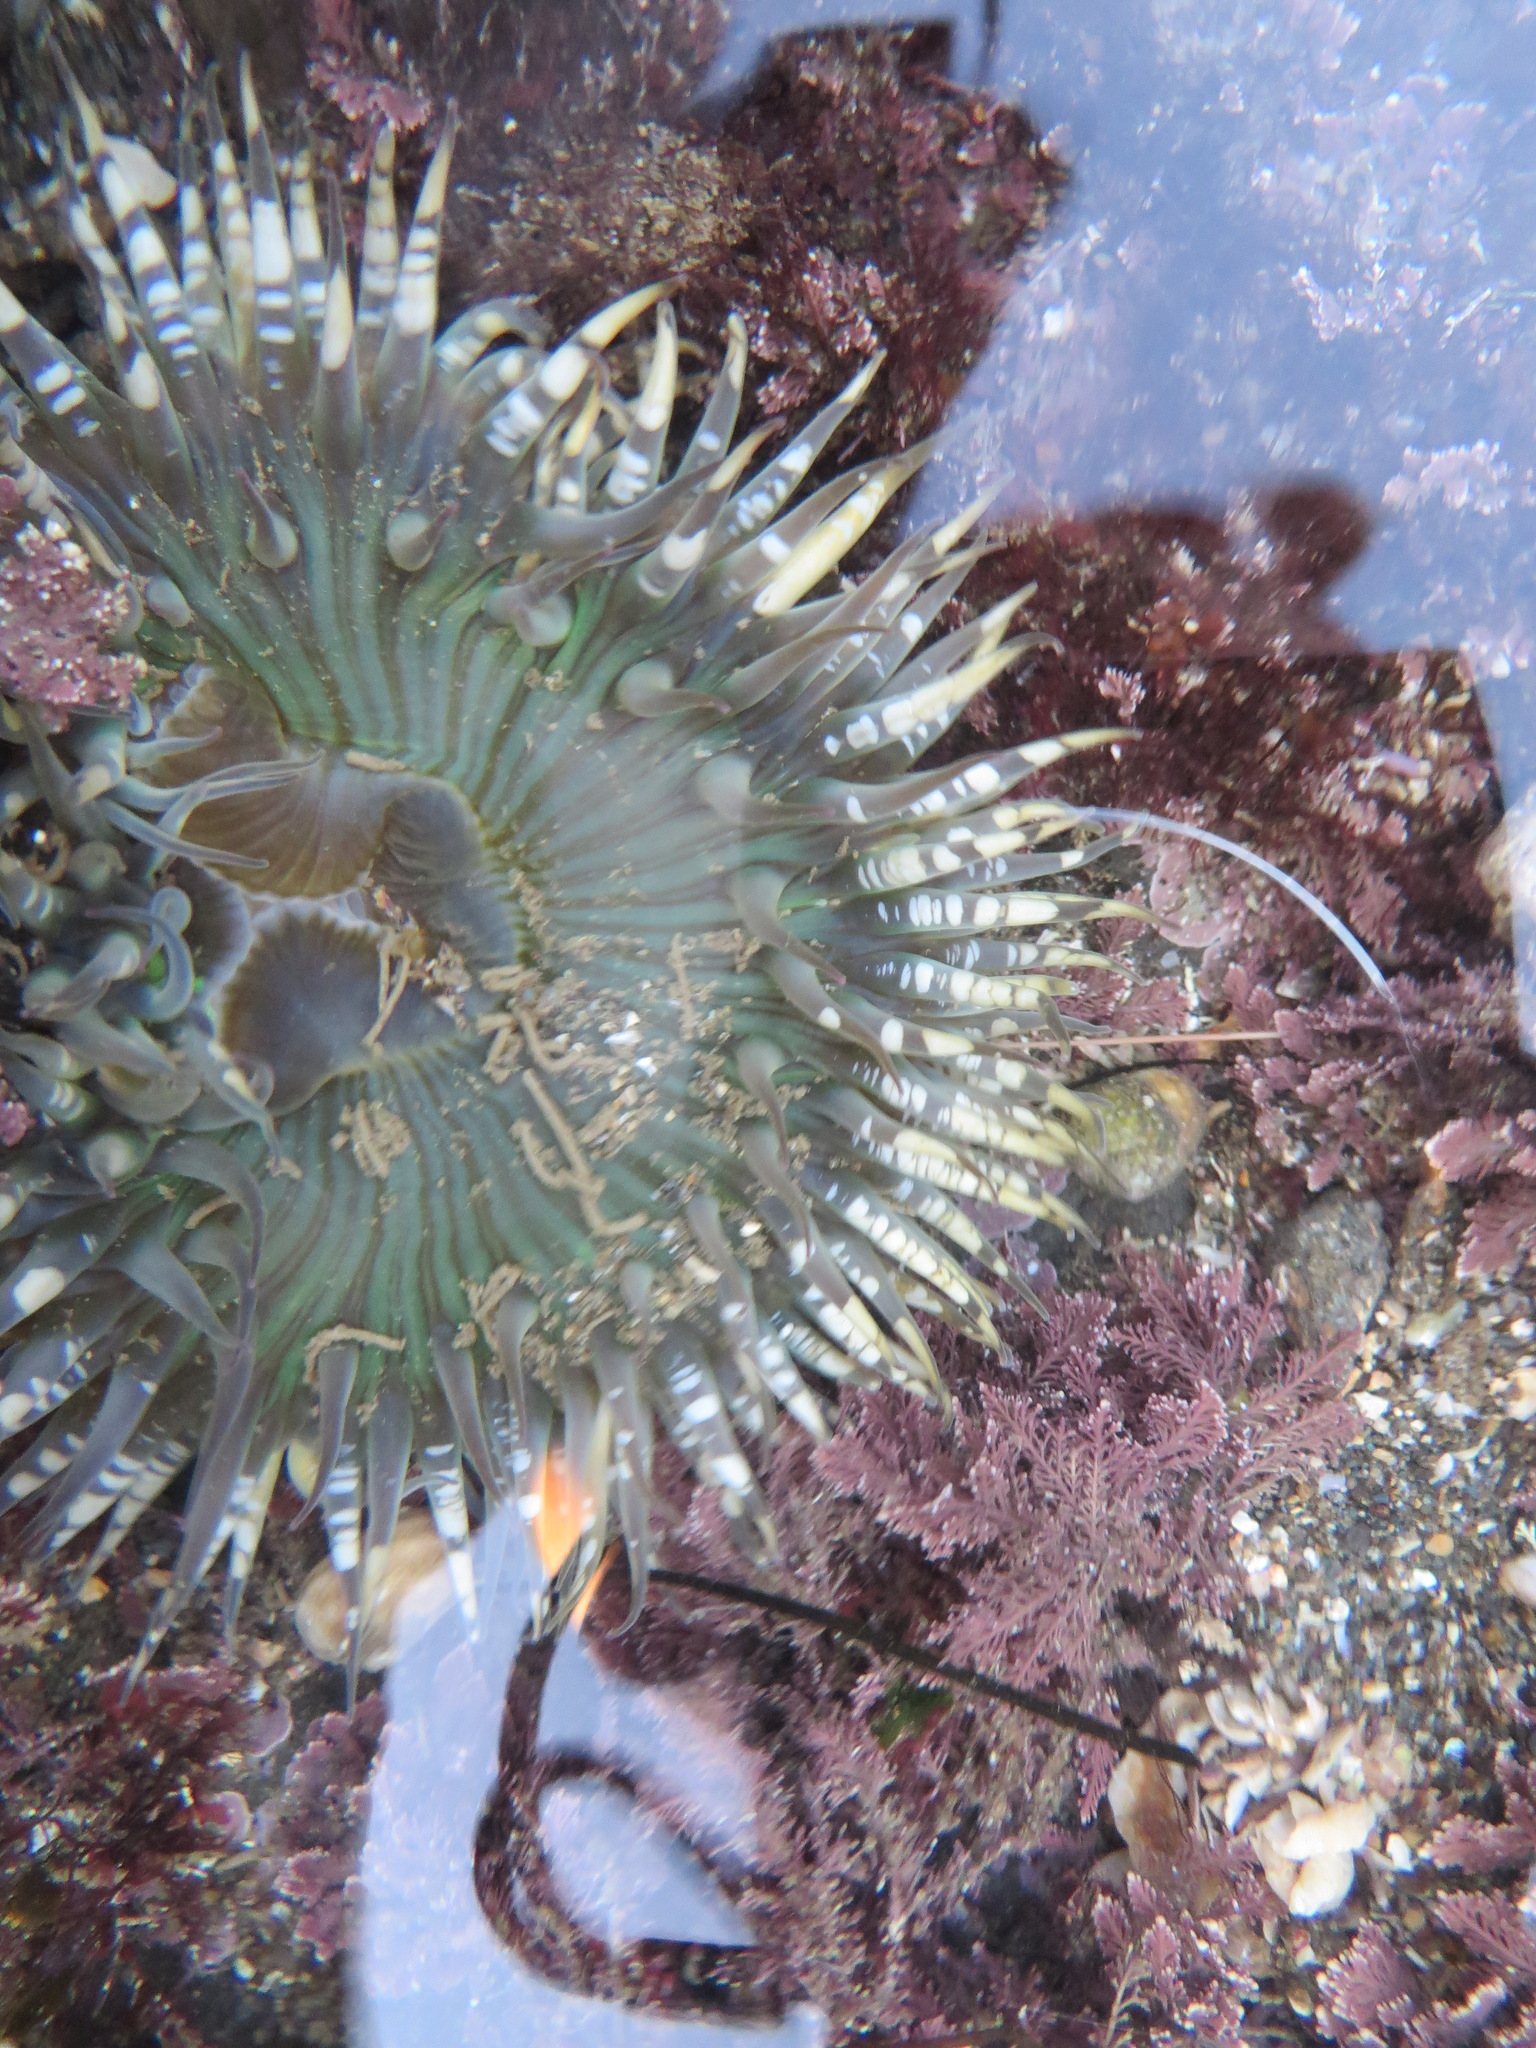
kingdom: Animalia
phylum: Cnidaria
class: Anthozoa
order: Actiniaria
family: Actiniidae
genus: Anthopleura
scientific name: Anthopleura sola
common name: Sun anemone
